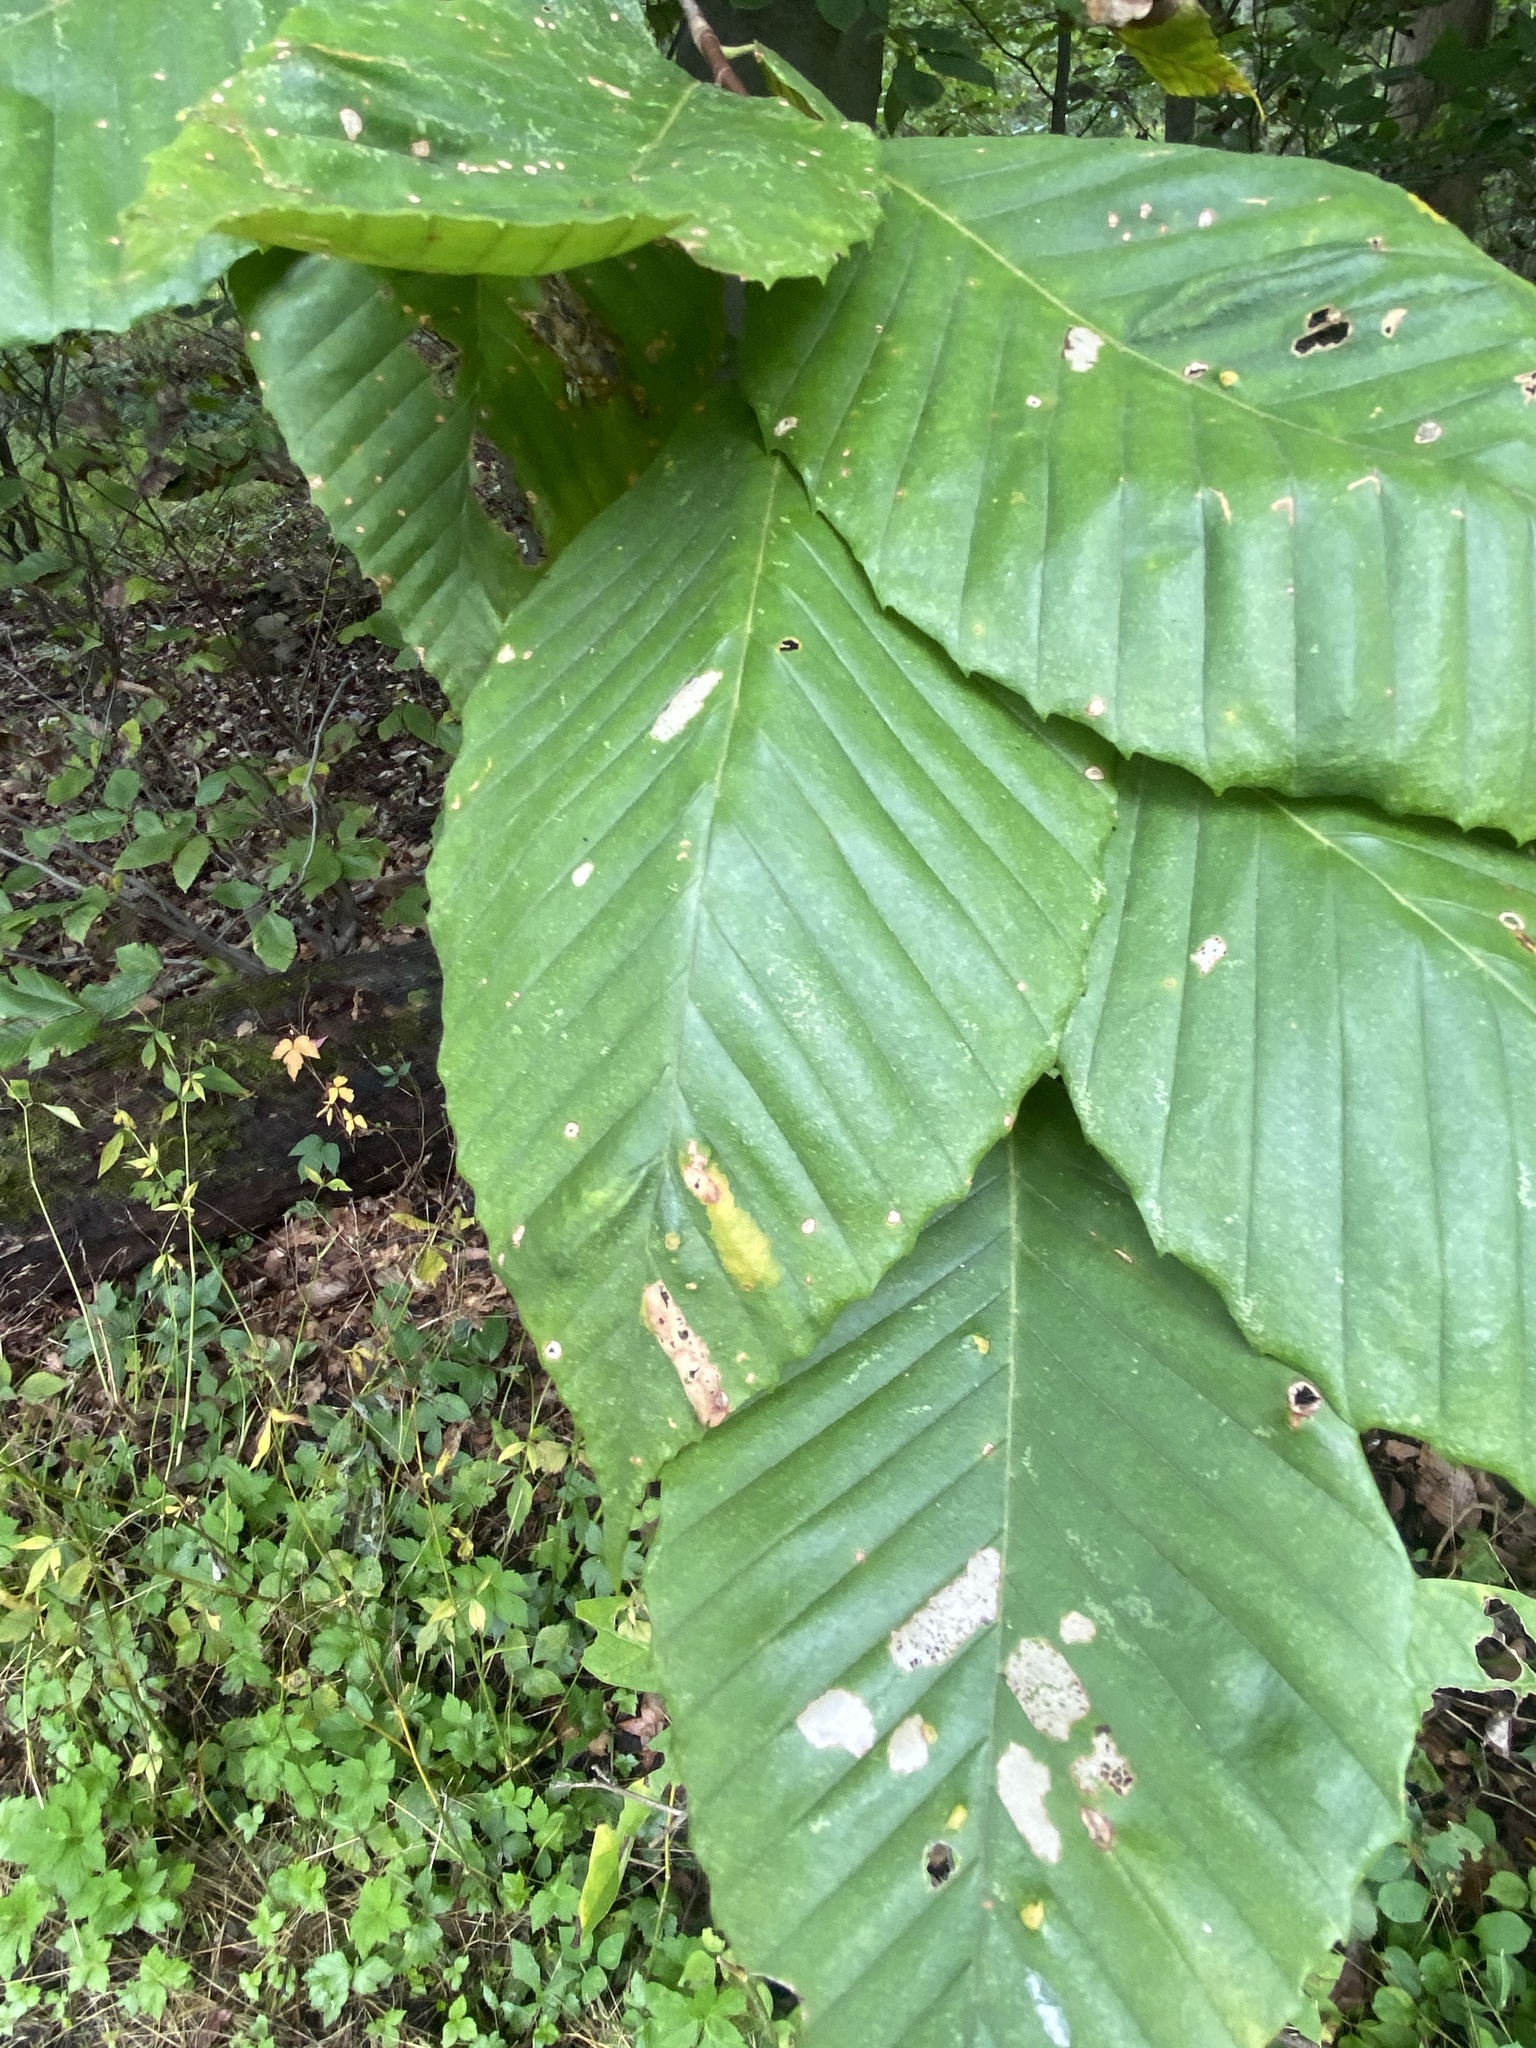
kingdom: Animalia
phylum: Nematoda
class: Chromadorea
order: Rhabditida
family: Anguinidae
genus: Litylenchus
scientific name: Litylenchus crenatae
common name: Beech leaf disease
